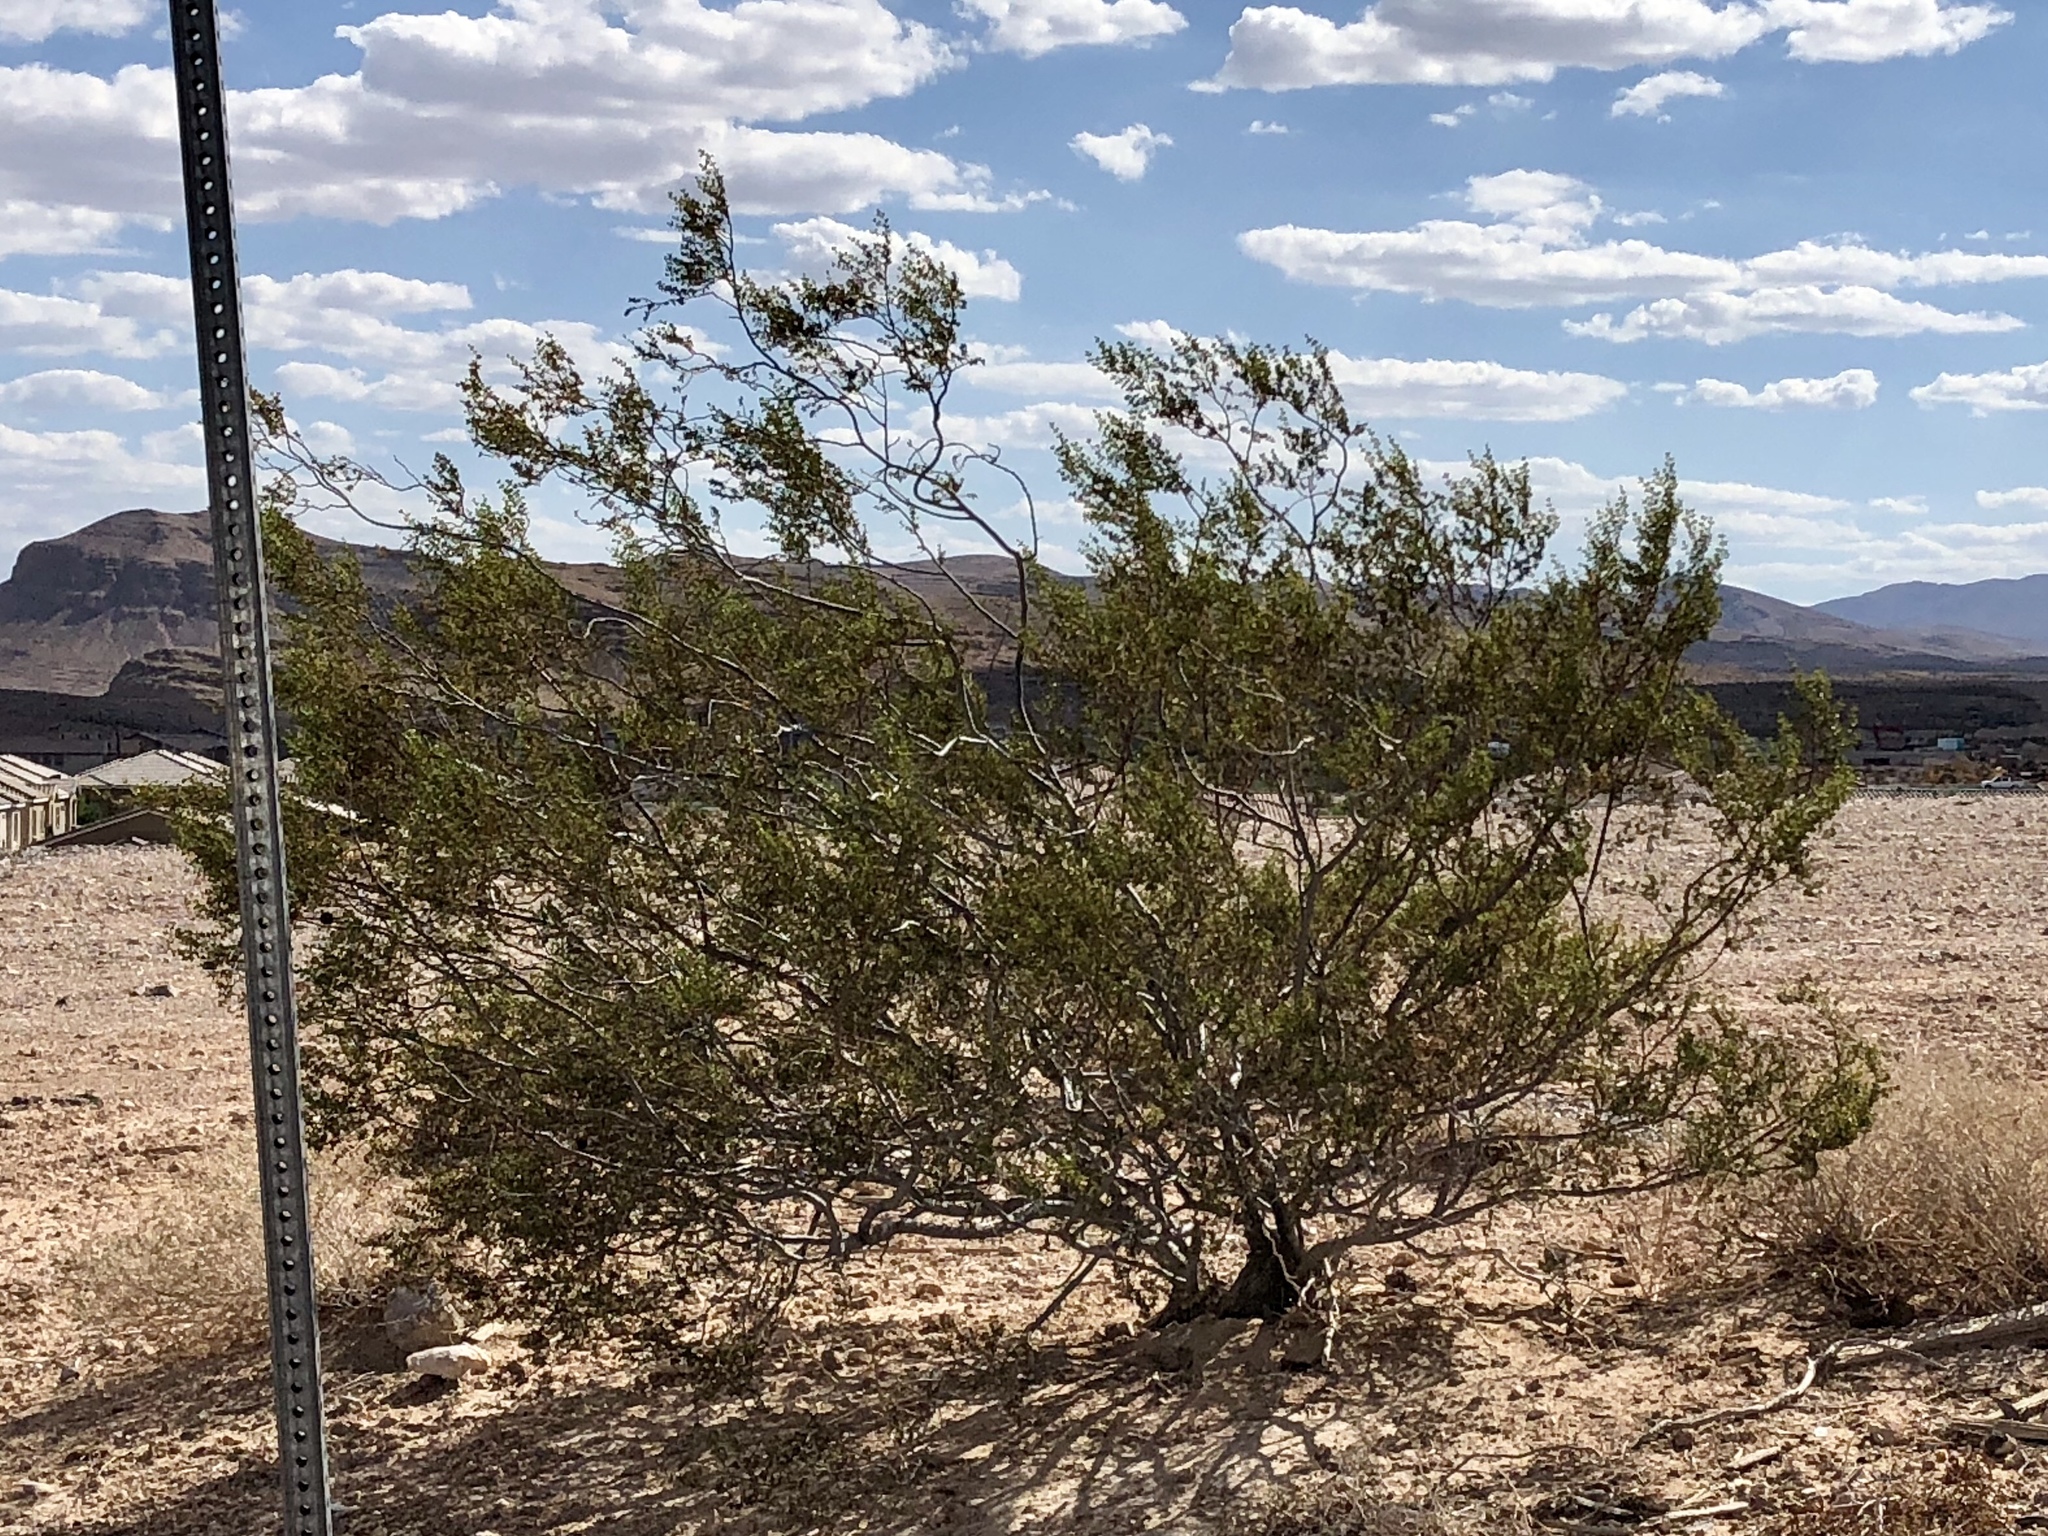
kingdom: Plantae
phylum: Tracheophyta
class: Magnoliopsida
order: Zygophyllales
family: Zygophyllaceae
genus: Larrea
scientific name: Larrea tridentata
